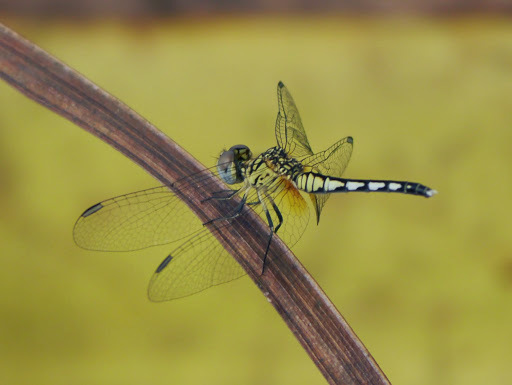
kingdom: Animalia
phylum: Arthropoda
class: Insecta
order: Odonata
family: Libellulidae
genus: Diplacodes
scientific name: Diplacodes lefebvrii
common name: Black percher
